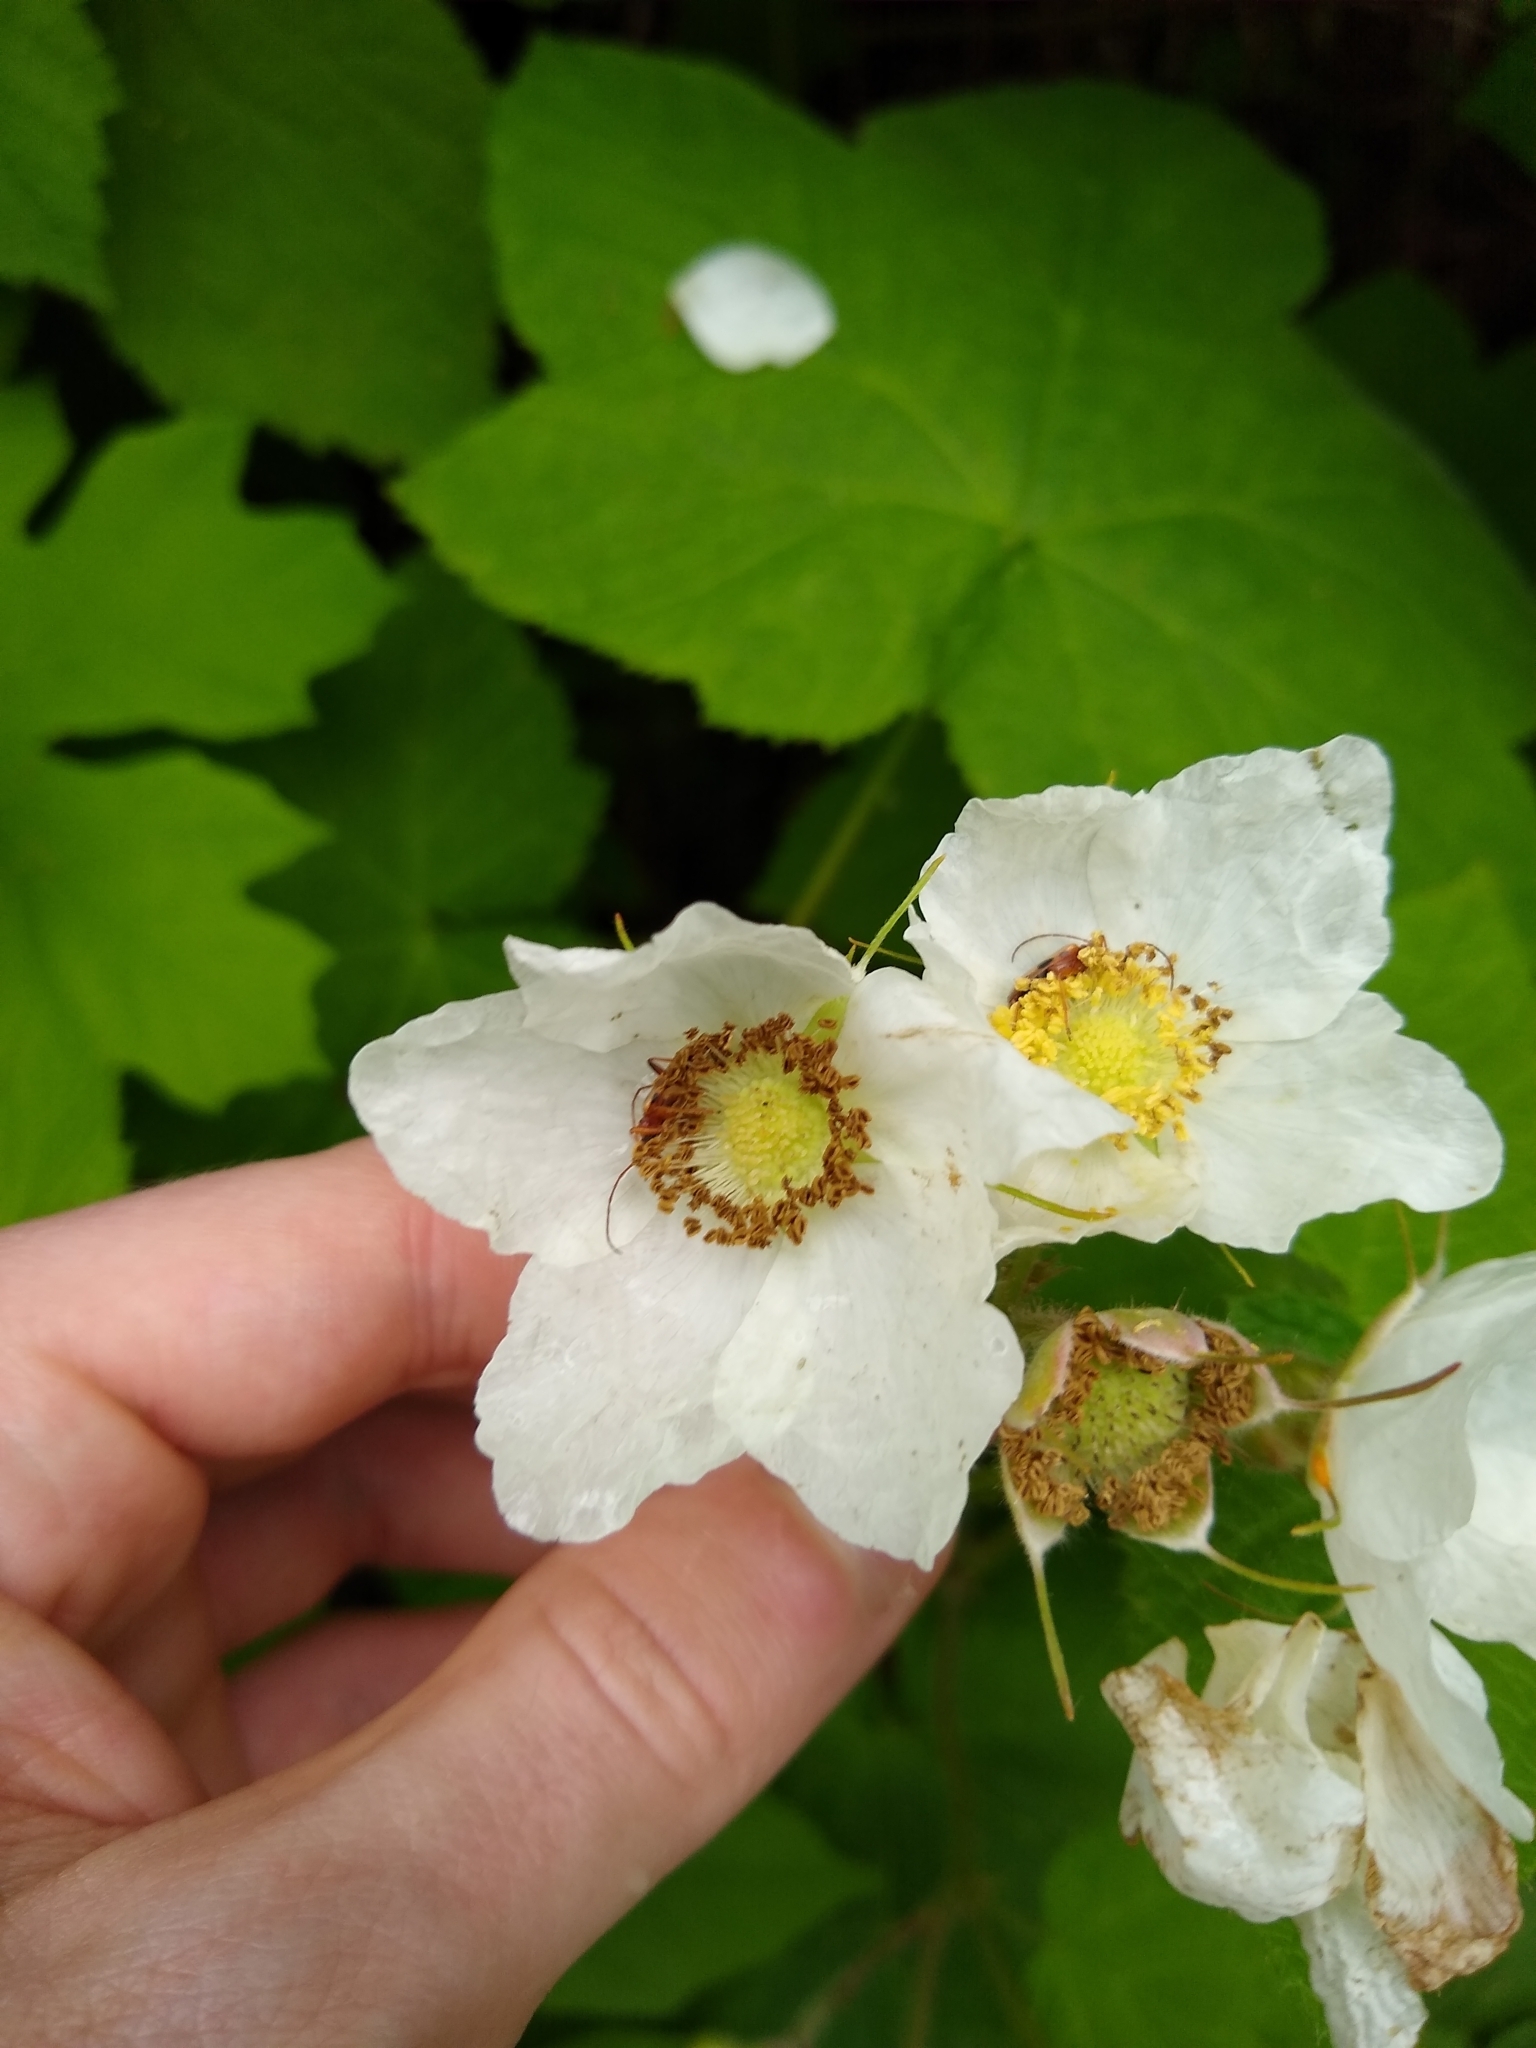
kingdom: Plantae
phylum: Tracheophyta
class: Magnoliopsida
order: Rosales
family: Rosaceae
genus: Rubus
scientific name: Rubus parviflorus
